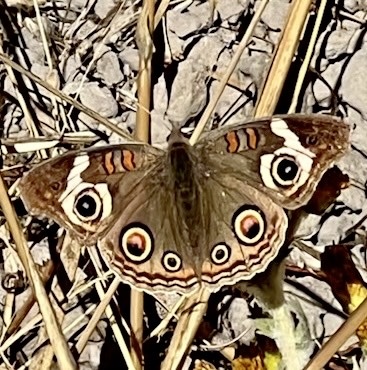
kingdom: Animalia
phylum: Arthropoda
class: Insecta
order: Lepidoptera
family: Nymphalidae
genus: Junonia
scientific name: Junonia grisea
